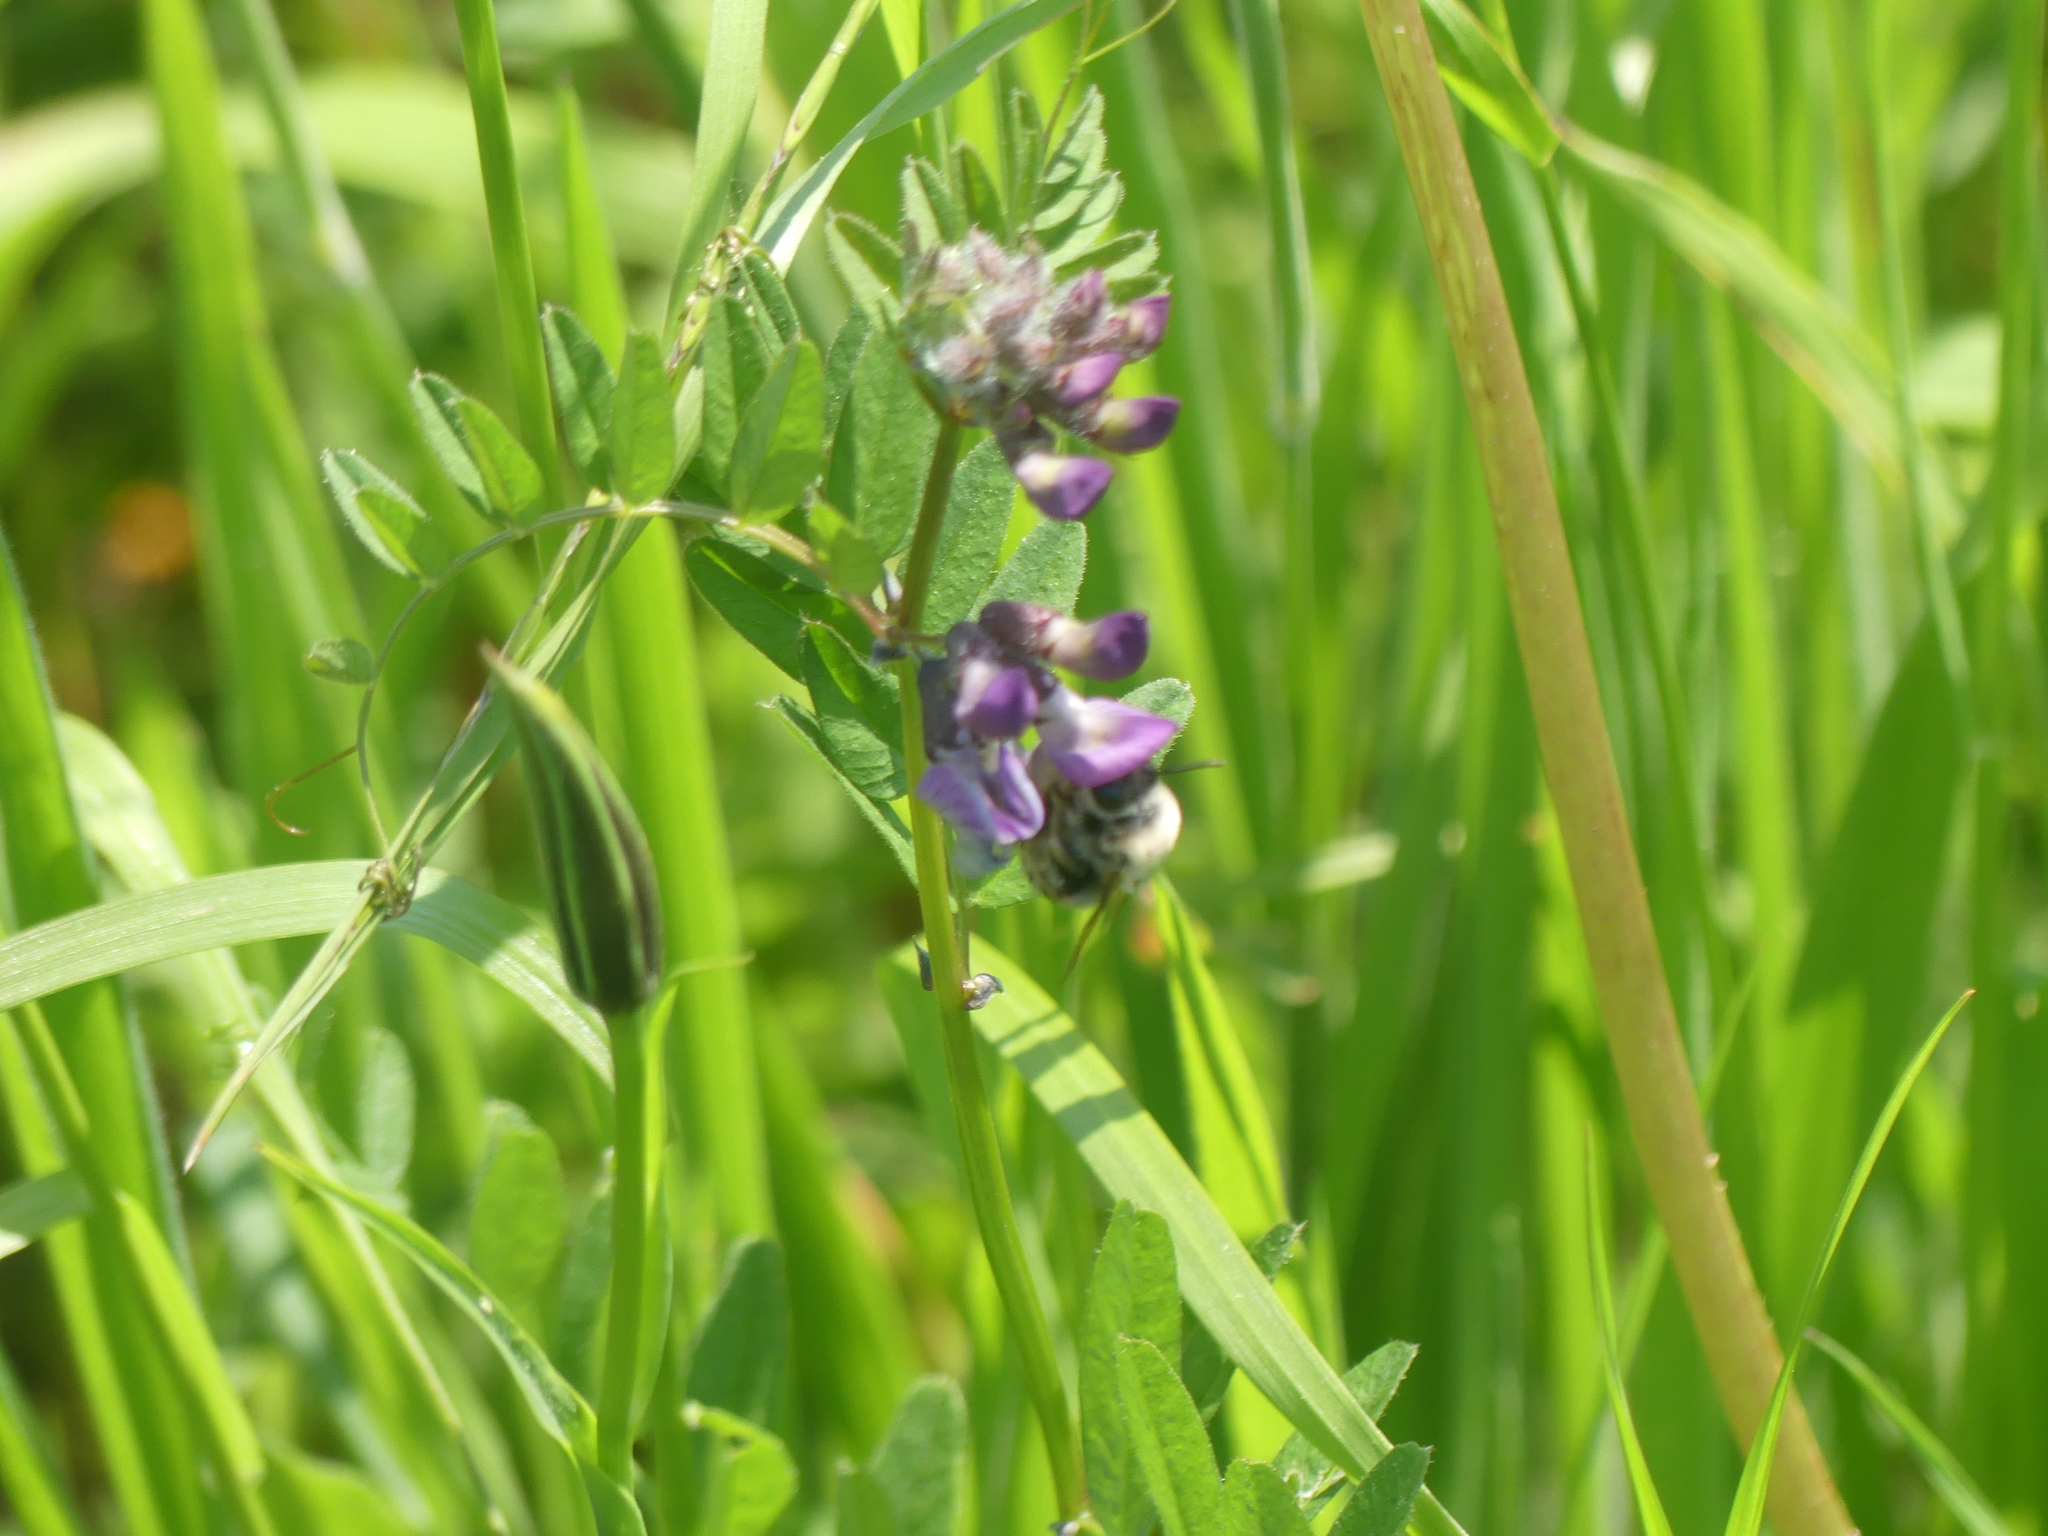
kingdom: Plantae
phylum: Tracheophyta
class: Magnoliopsida
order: Fabales
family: Fabaceae
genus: Vicia
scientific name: Vicia sepium
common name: Bush vetch
